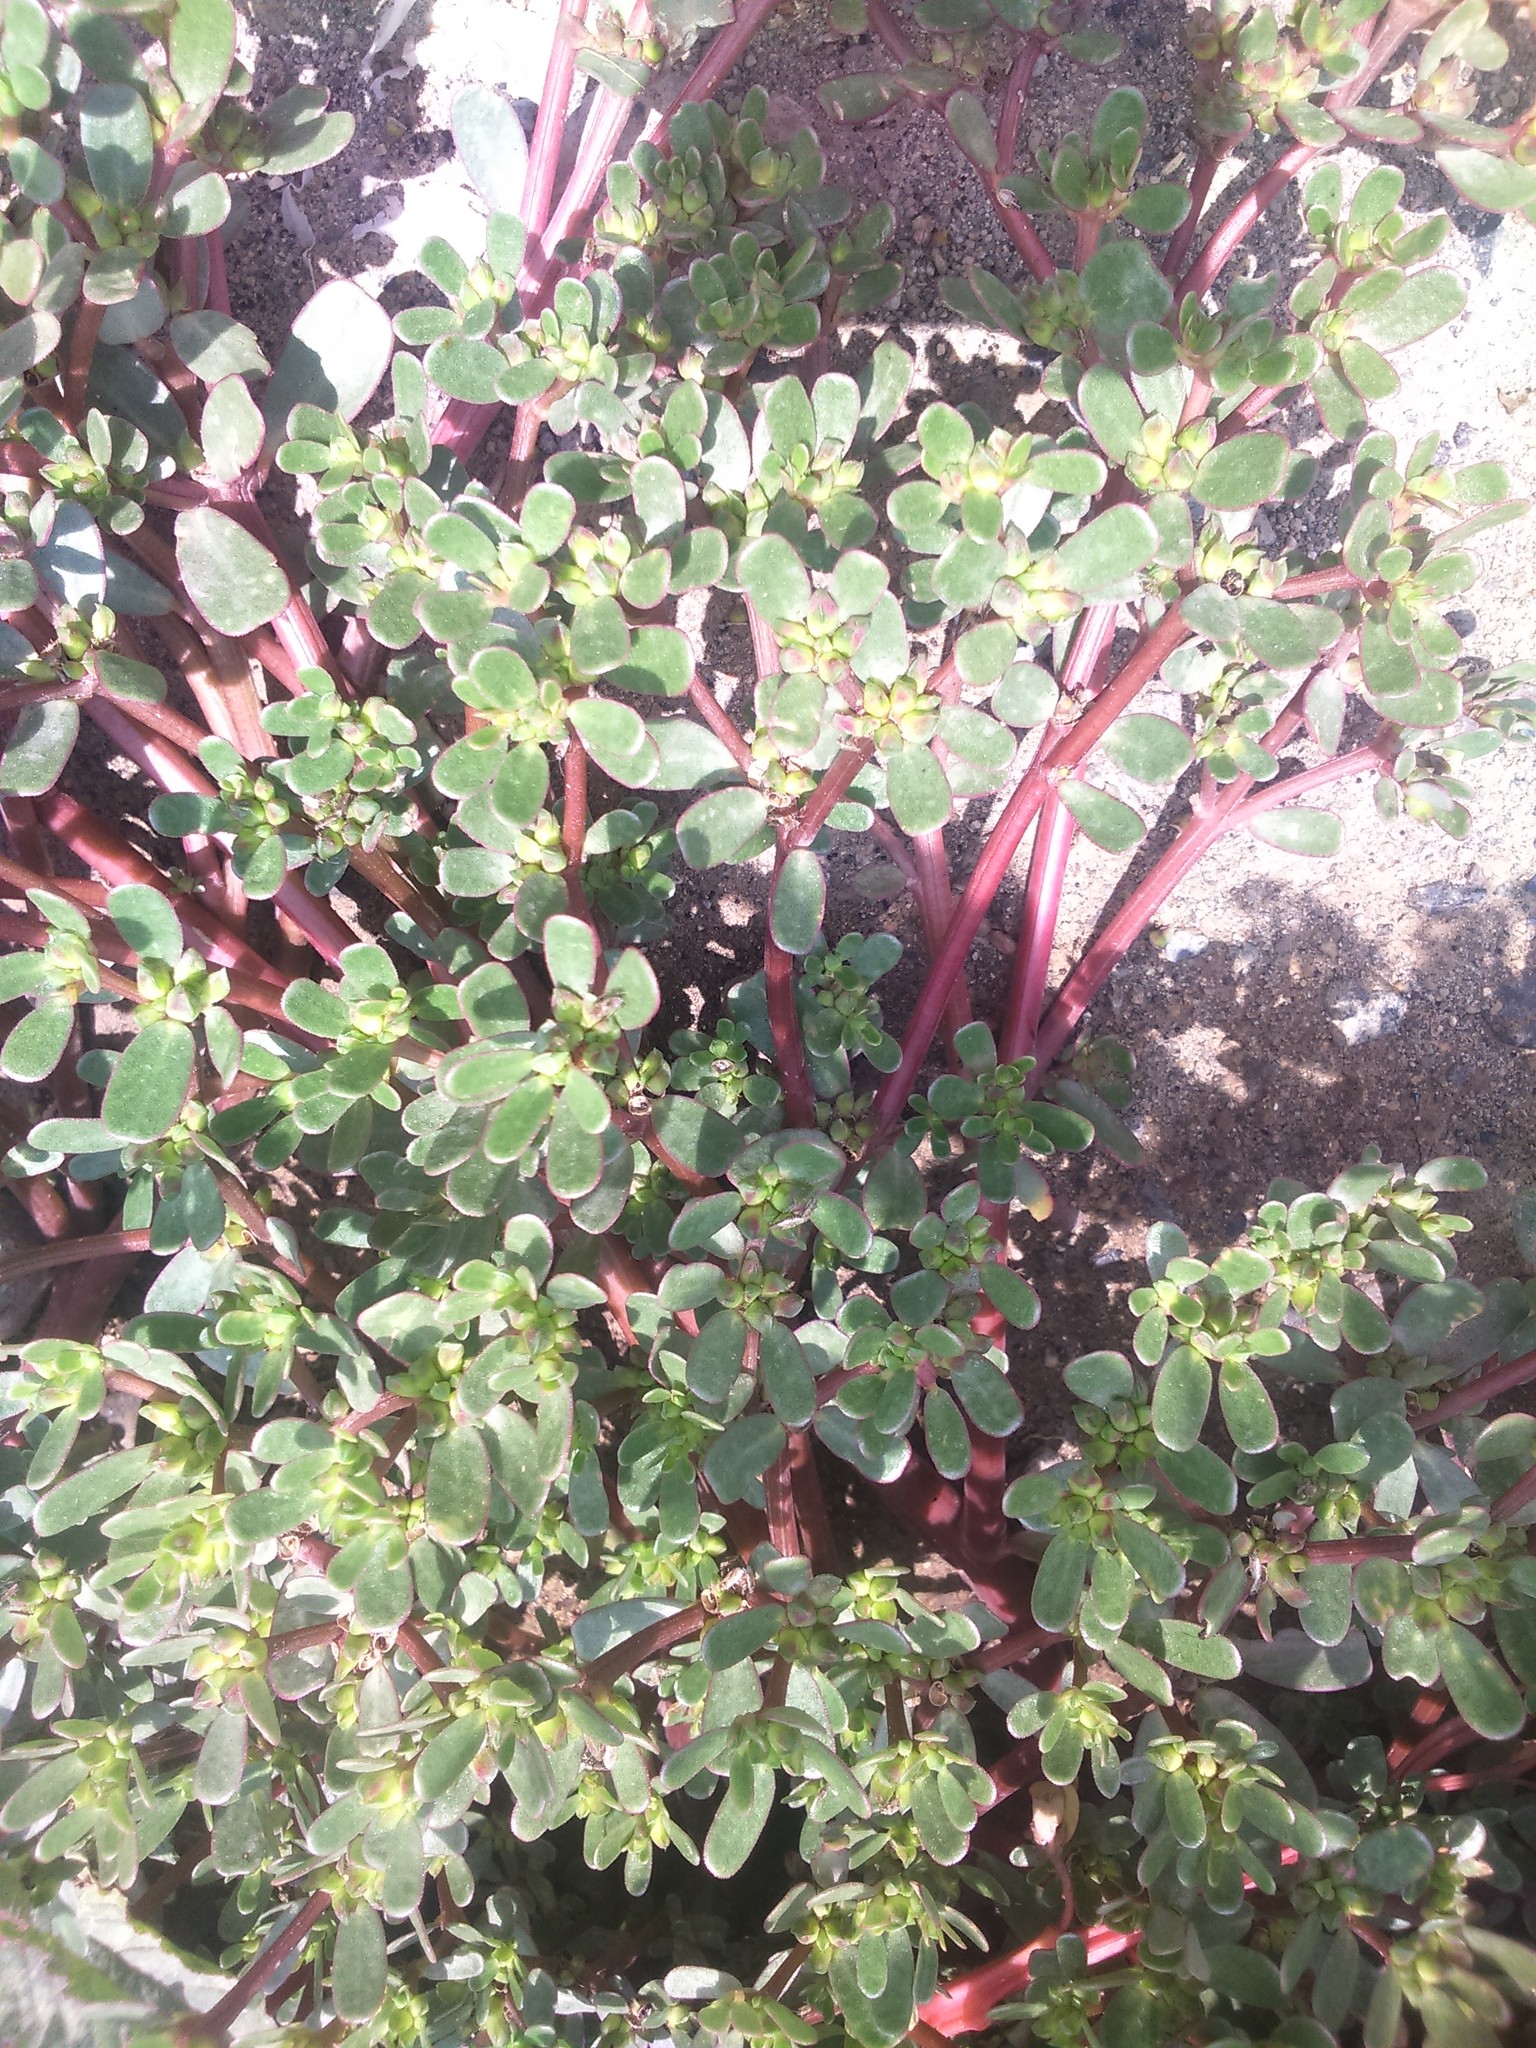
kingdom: Plantae
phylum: Tracheophyta
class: Magnoliopsida
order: Caryophyllales
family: Portulacaceae
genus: Portulaca
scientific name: Portulaca oleracea
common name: Common purslane
